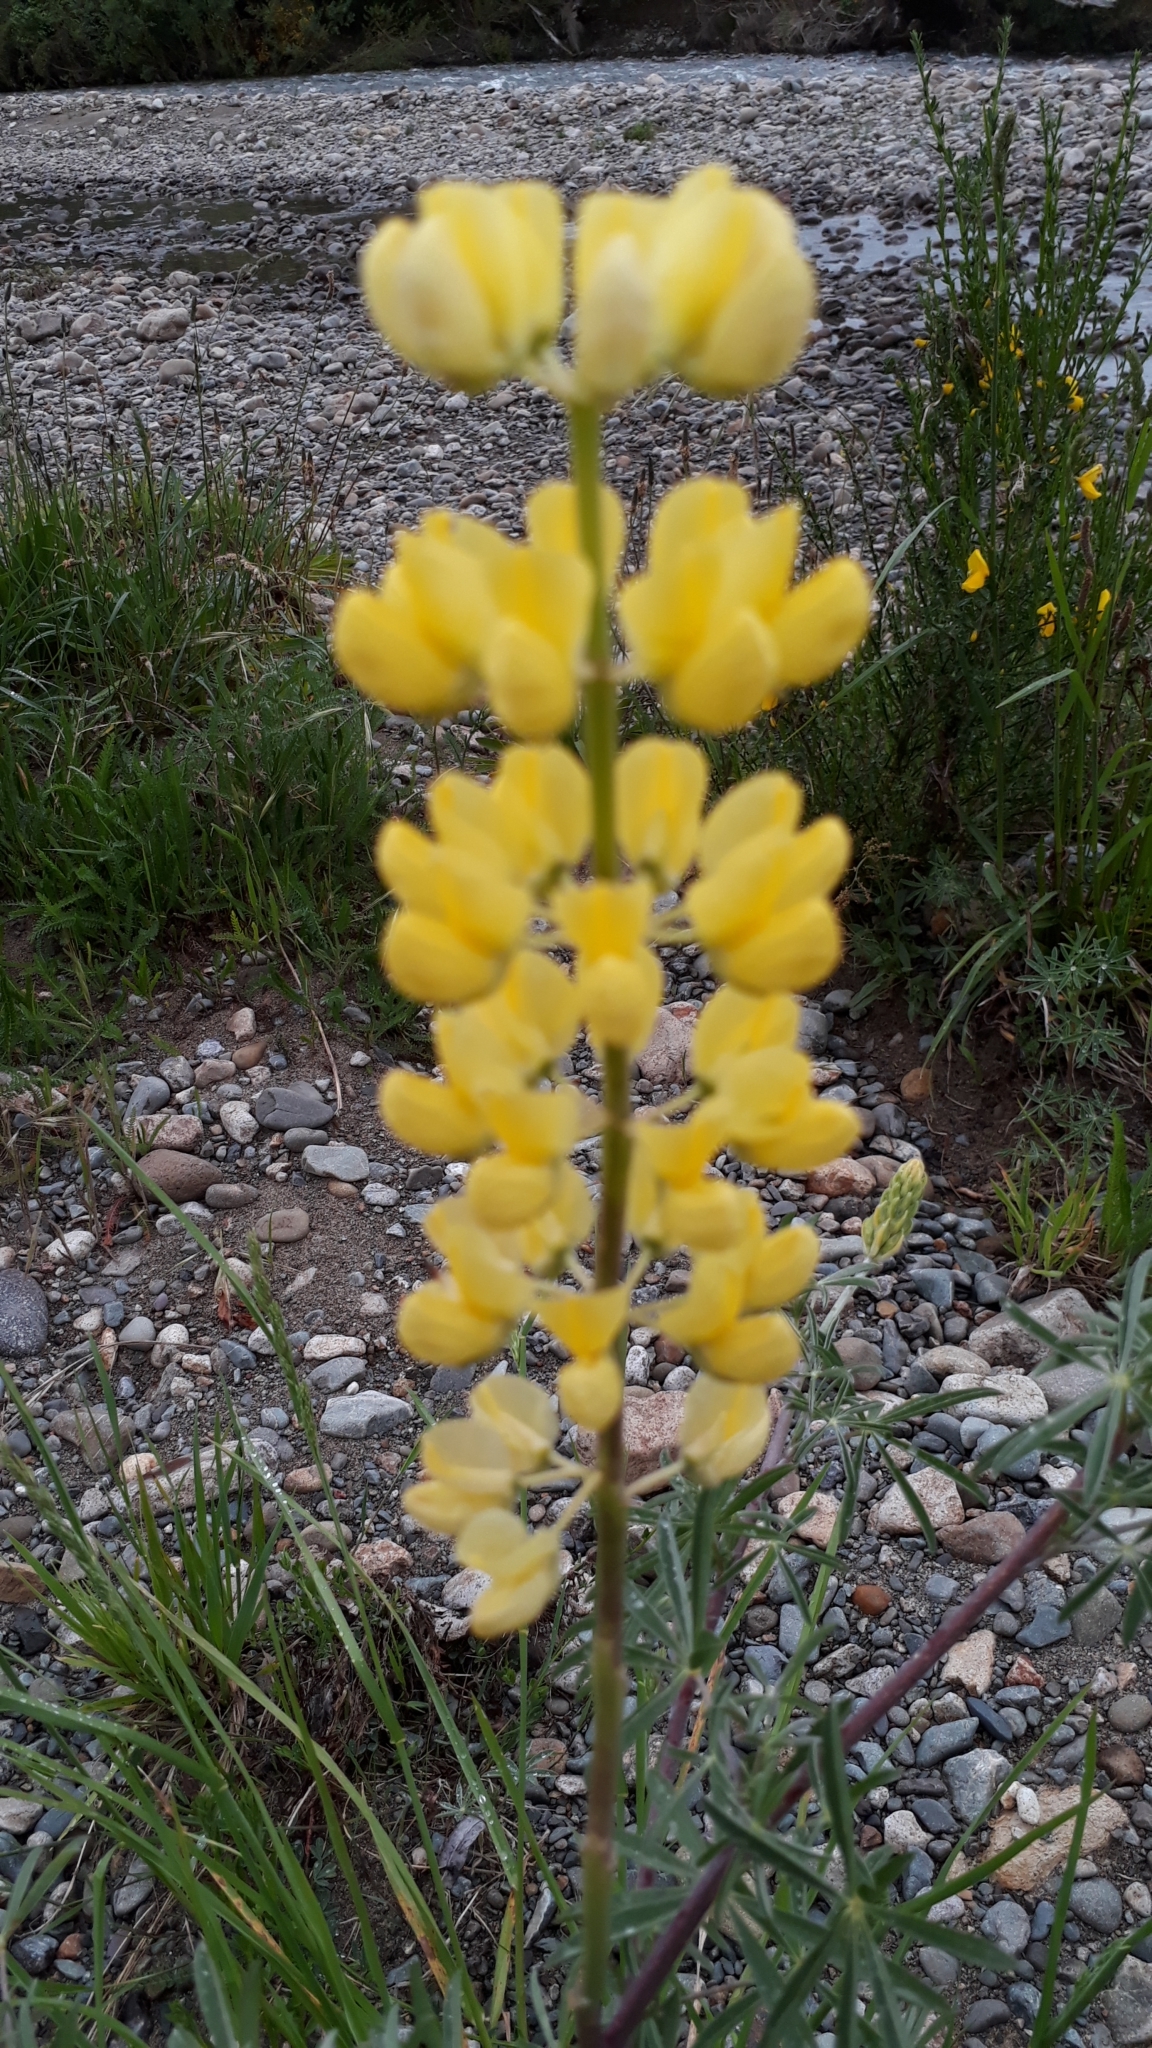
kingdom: Plantae
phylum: Tracheophyta
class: Magnoliopsida
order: Fabales
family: Fabaceae
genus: Lupinus
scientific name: Lupinus arboreus
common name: Yellow bush lupine
